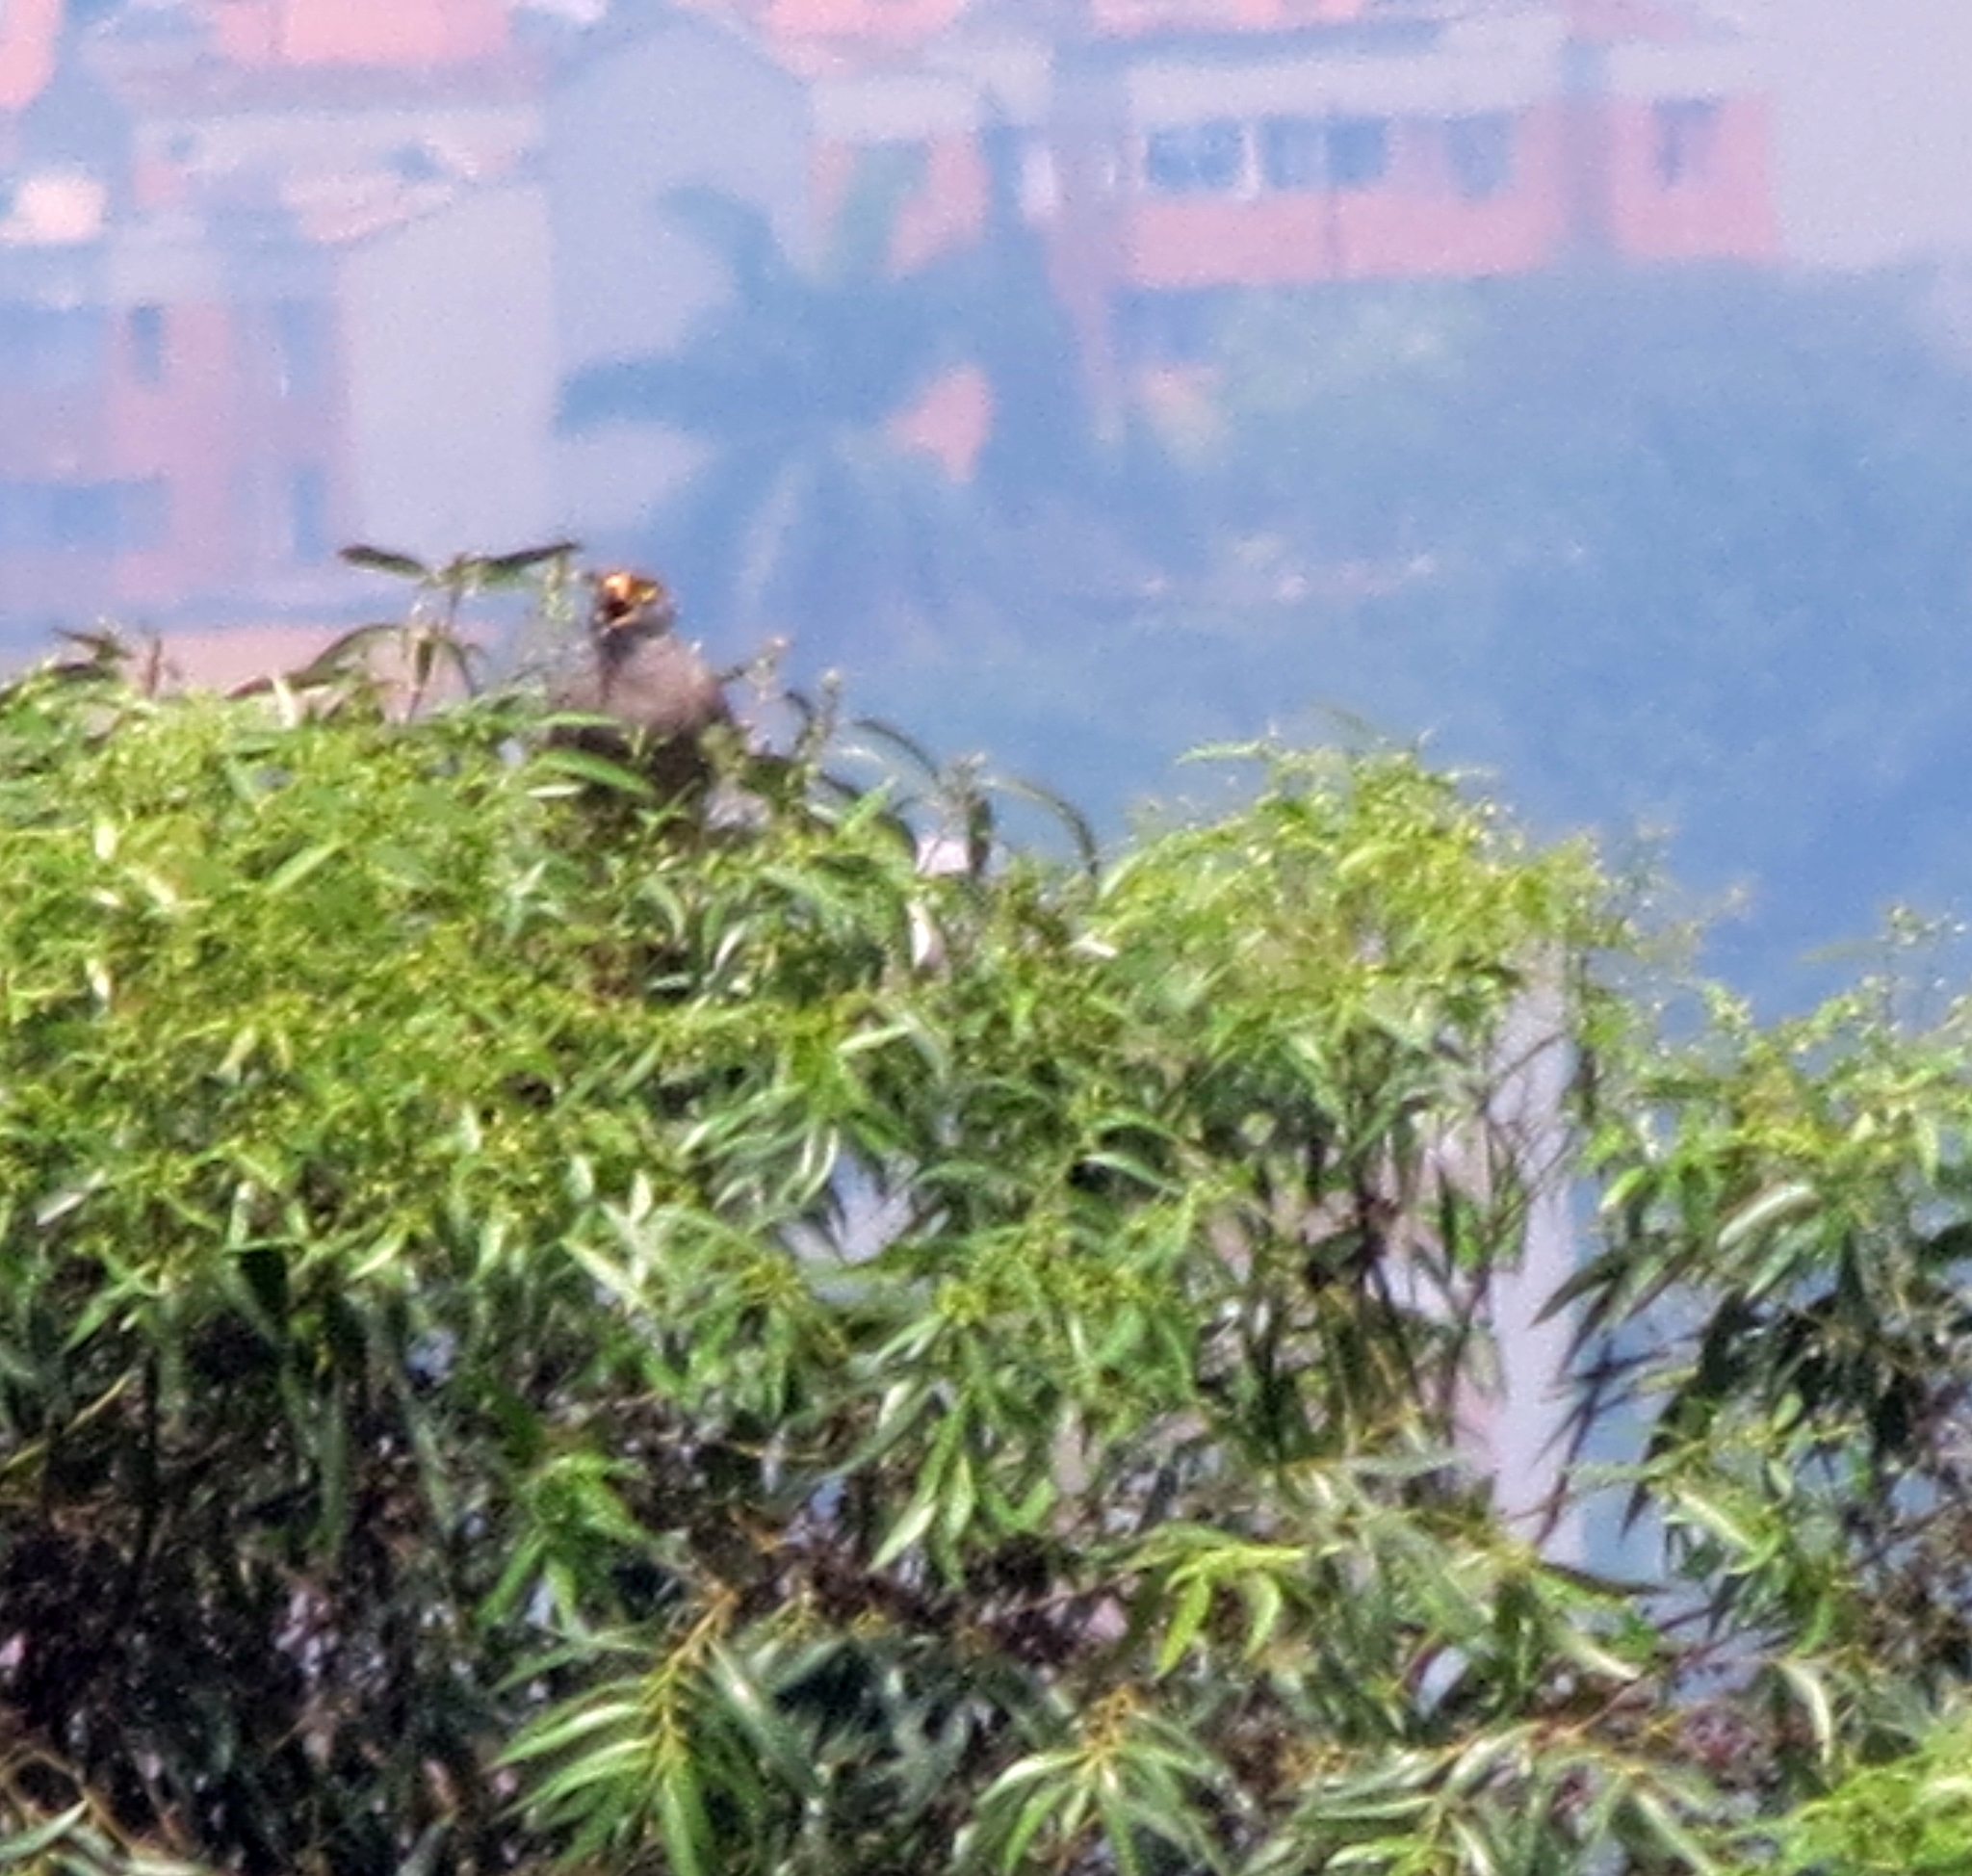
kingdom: Animalia
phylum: Chordata
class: Aves
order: Accipitriformes
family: Accipitridae
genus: Rupornis
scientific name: Rupornis magnirostris
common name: Roadside hawk
